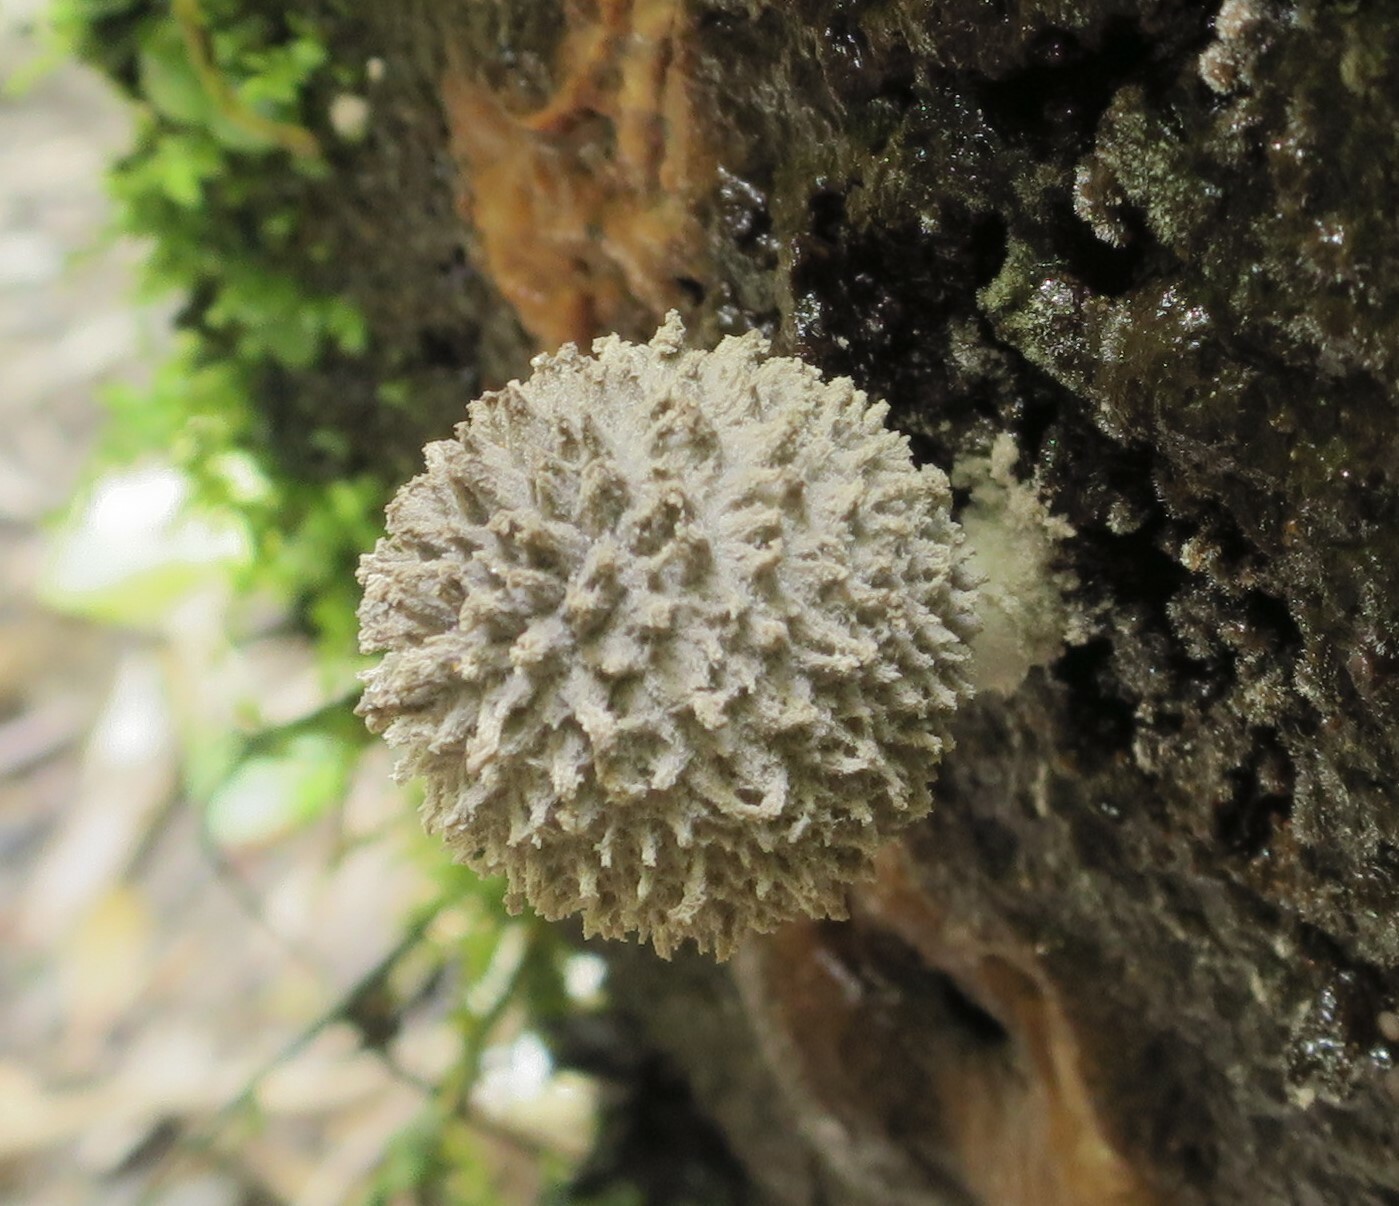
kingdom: Fungi
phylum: Basidiomycota
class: Agaricomycetes
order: Agaricales
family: Psathyrellaceae
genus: Coprinopsis
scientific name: Coprinopsis laanii
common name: Dotty inkcap
